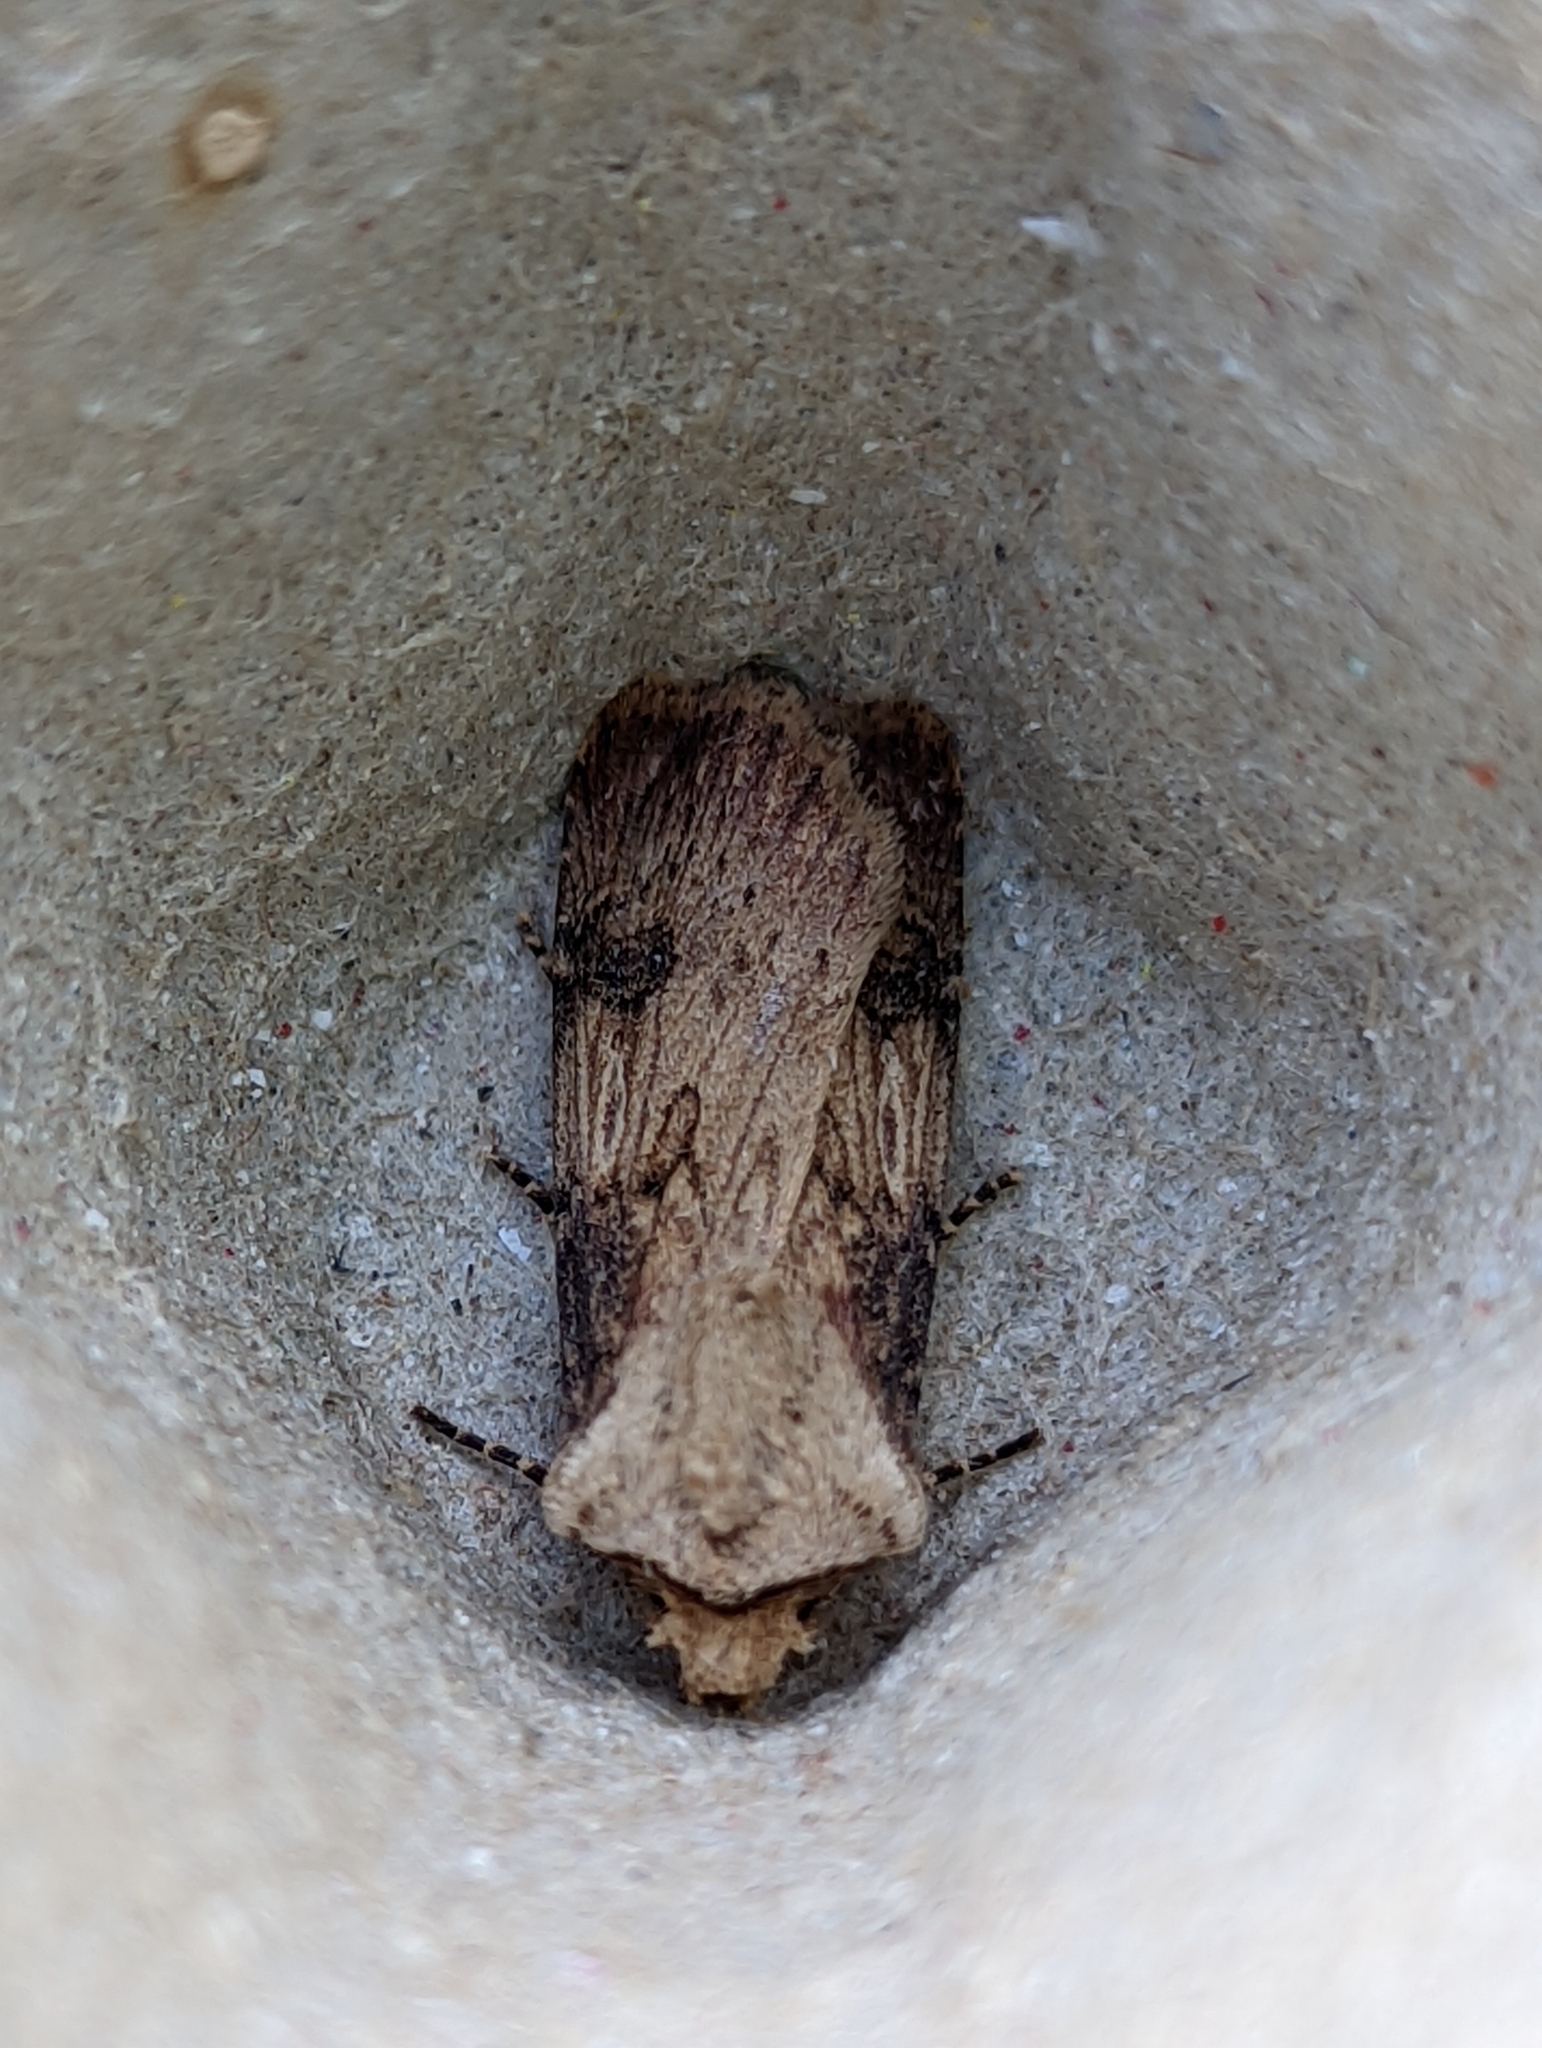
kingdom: Animalia
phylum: Arthropoda
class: Insecta
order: Lepidoptera
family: Noctuidae
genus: Agrotis
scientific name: Agrotis puta
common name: Shuttle-shaped dart
